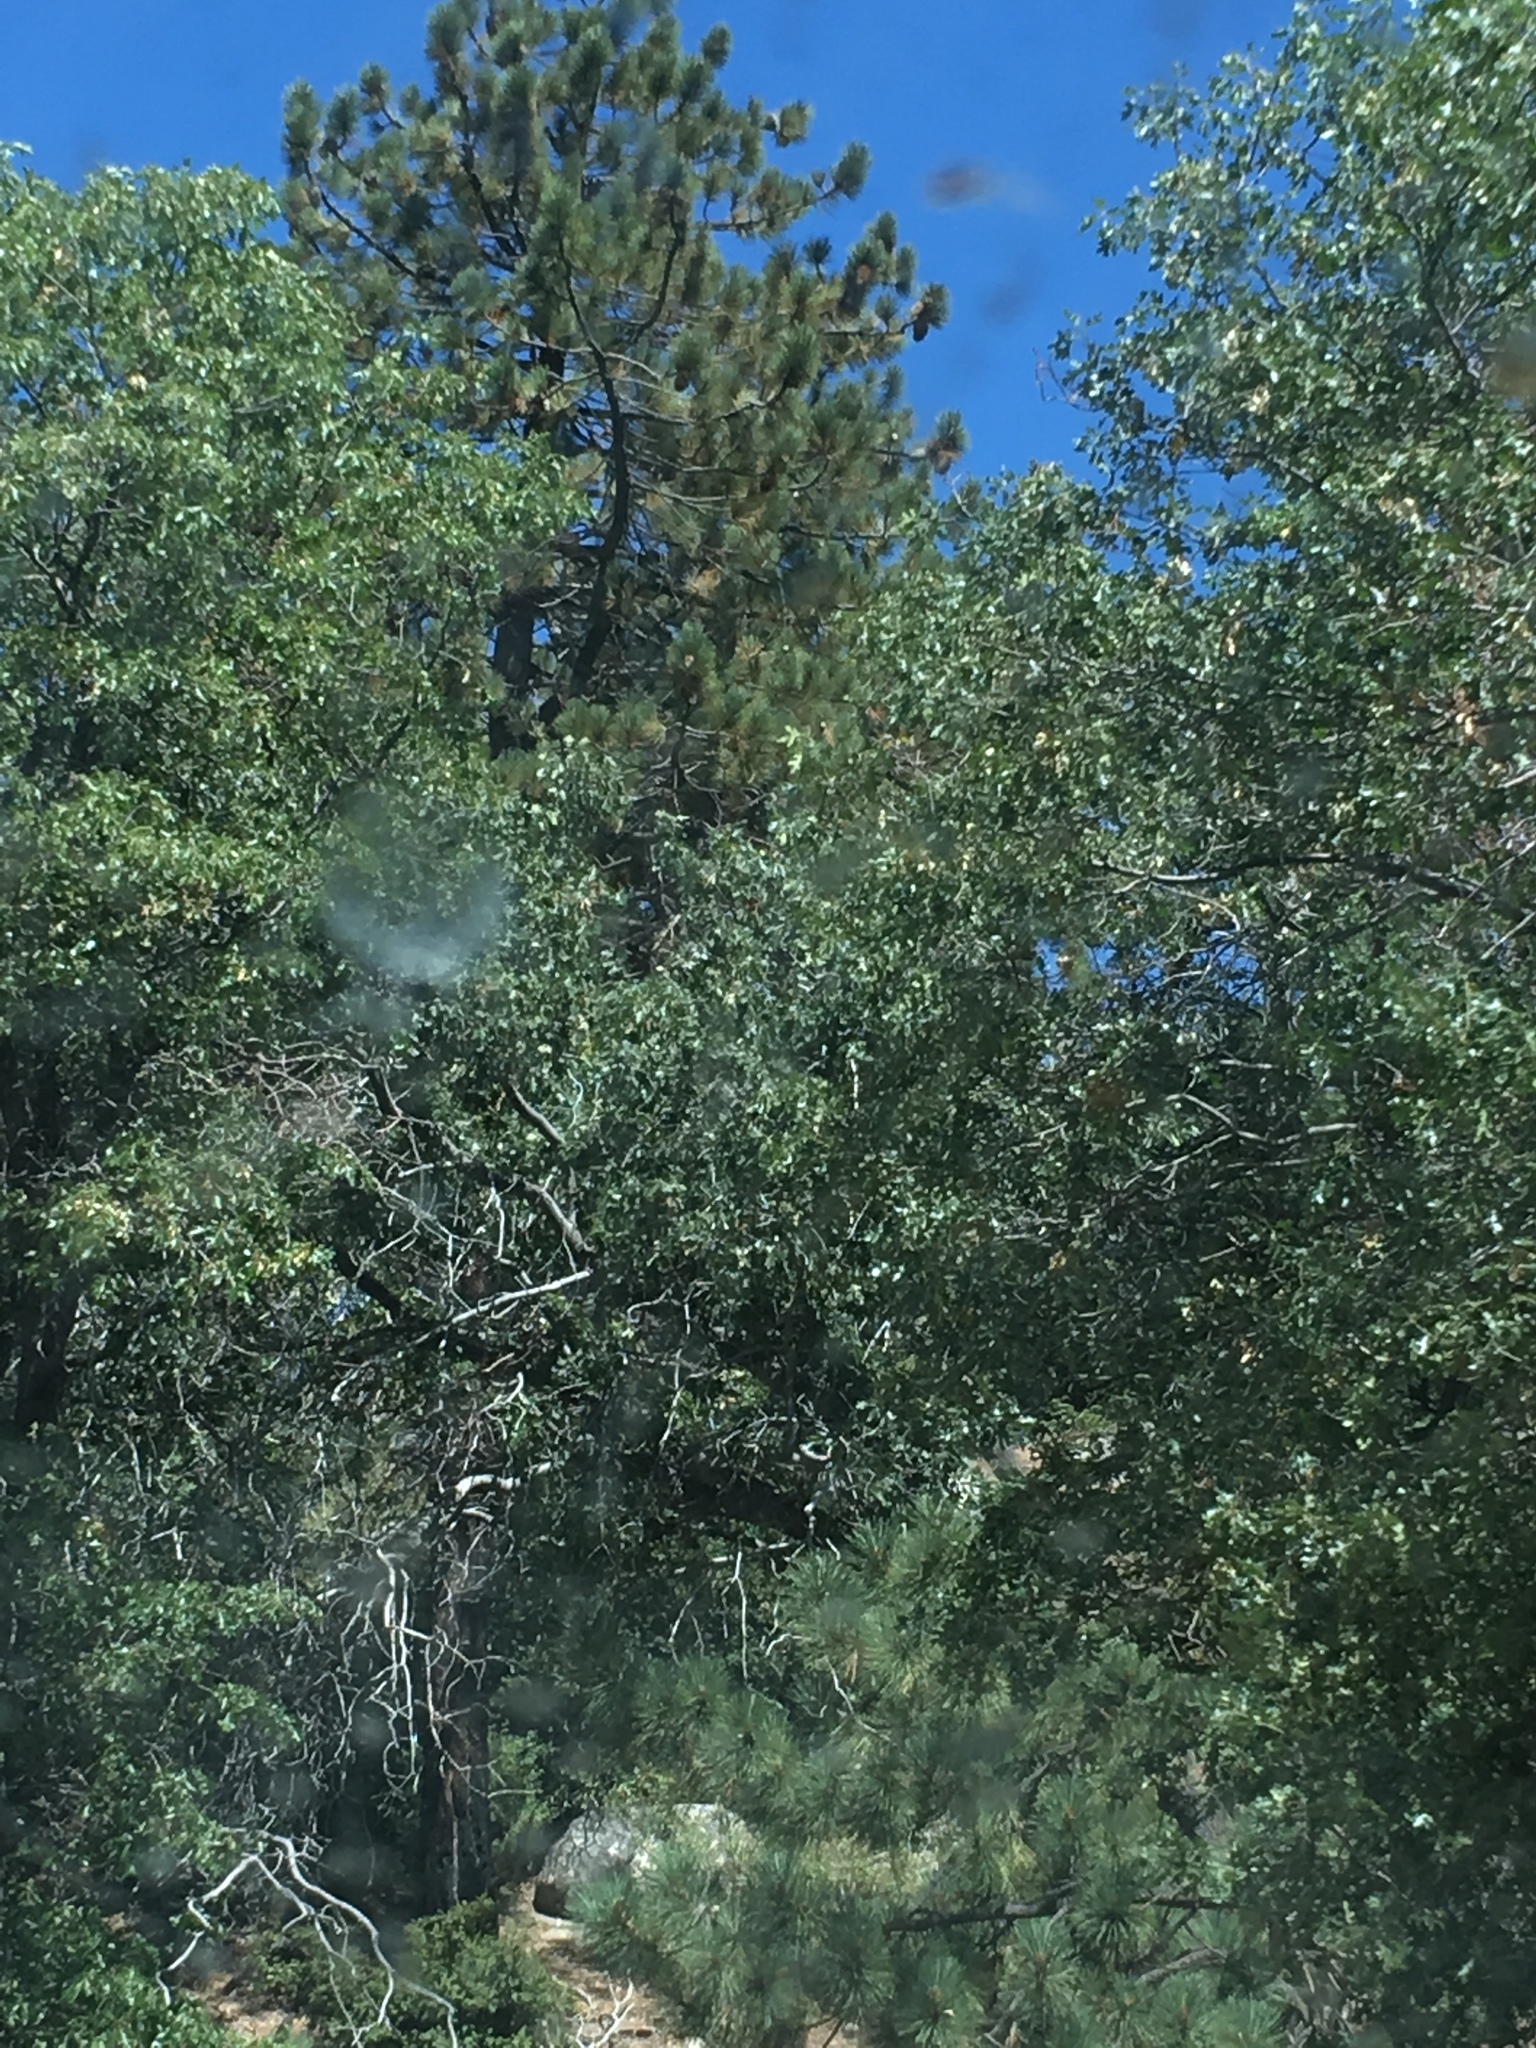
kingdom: Plantae
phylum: Tracheophyta
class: Pinopsida
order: Pinales
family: Pinaceae
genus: Pinus
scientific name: Pinus coulteri
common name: Coulter pine
